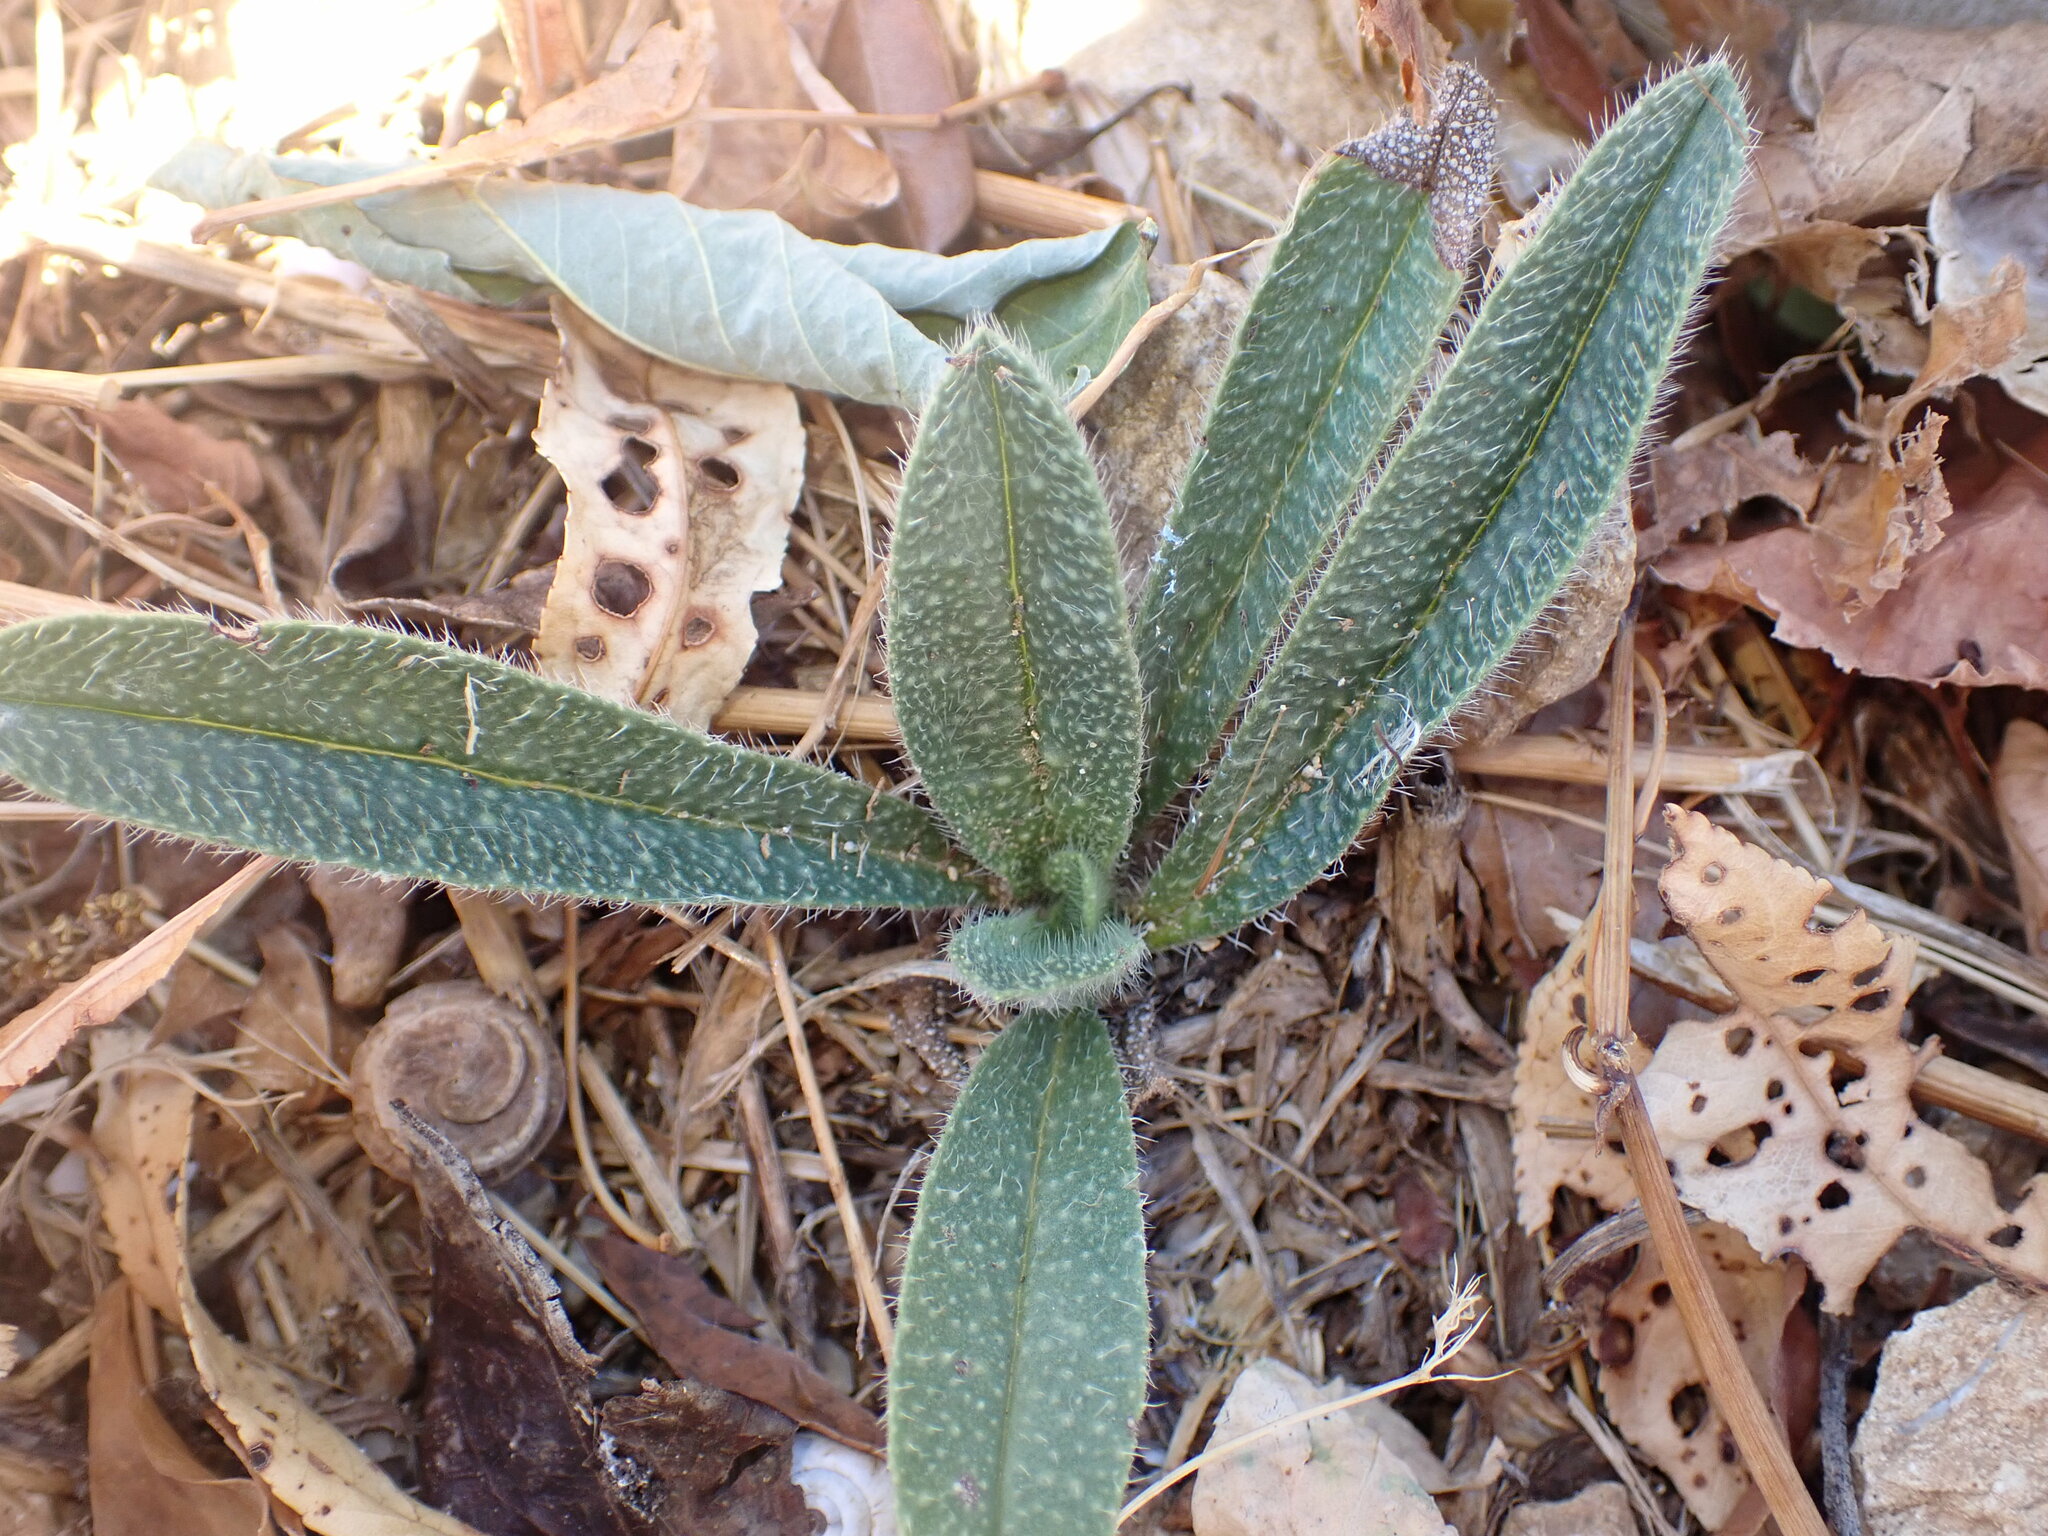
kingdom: Plantae
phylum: Tracheophyta
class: Magnoliopsida
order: Boraginales
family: Boraginaceae
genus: Anchusa
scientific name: Anchusa azurea
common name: Garden anchusa
